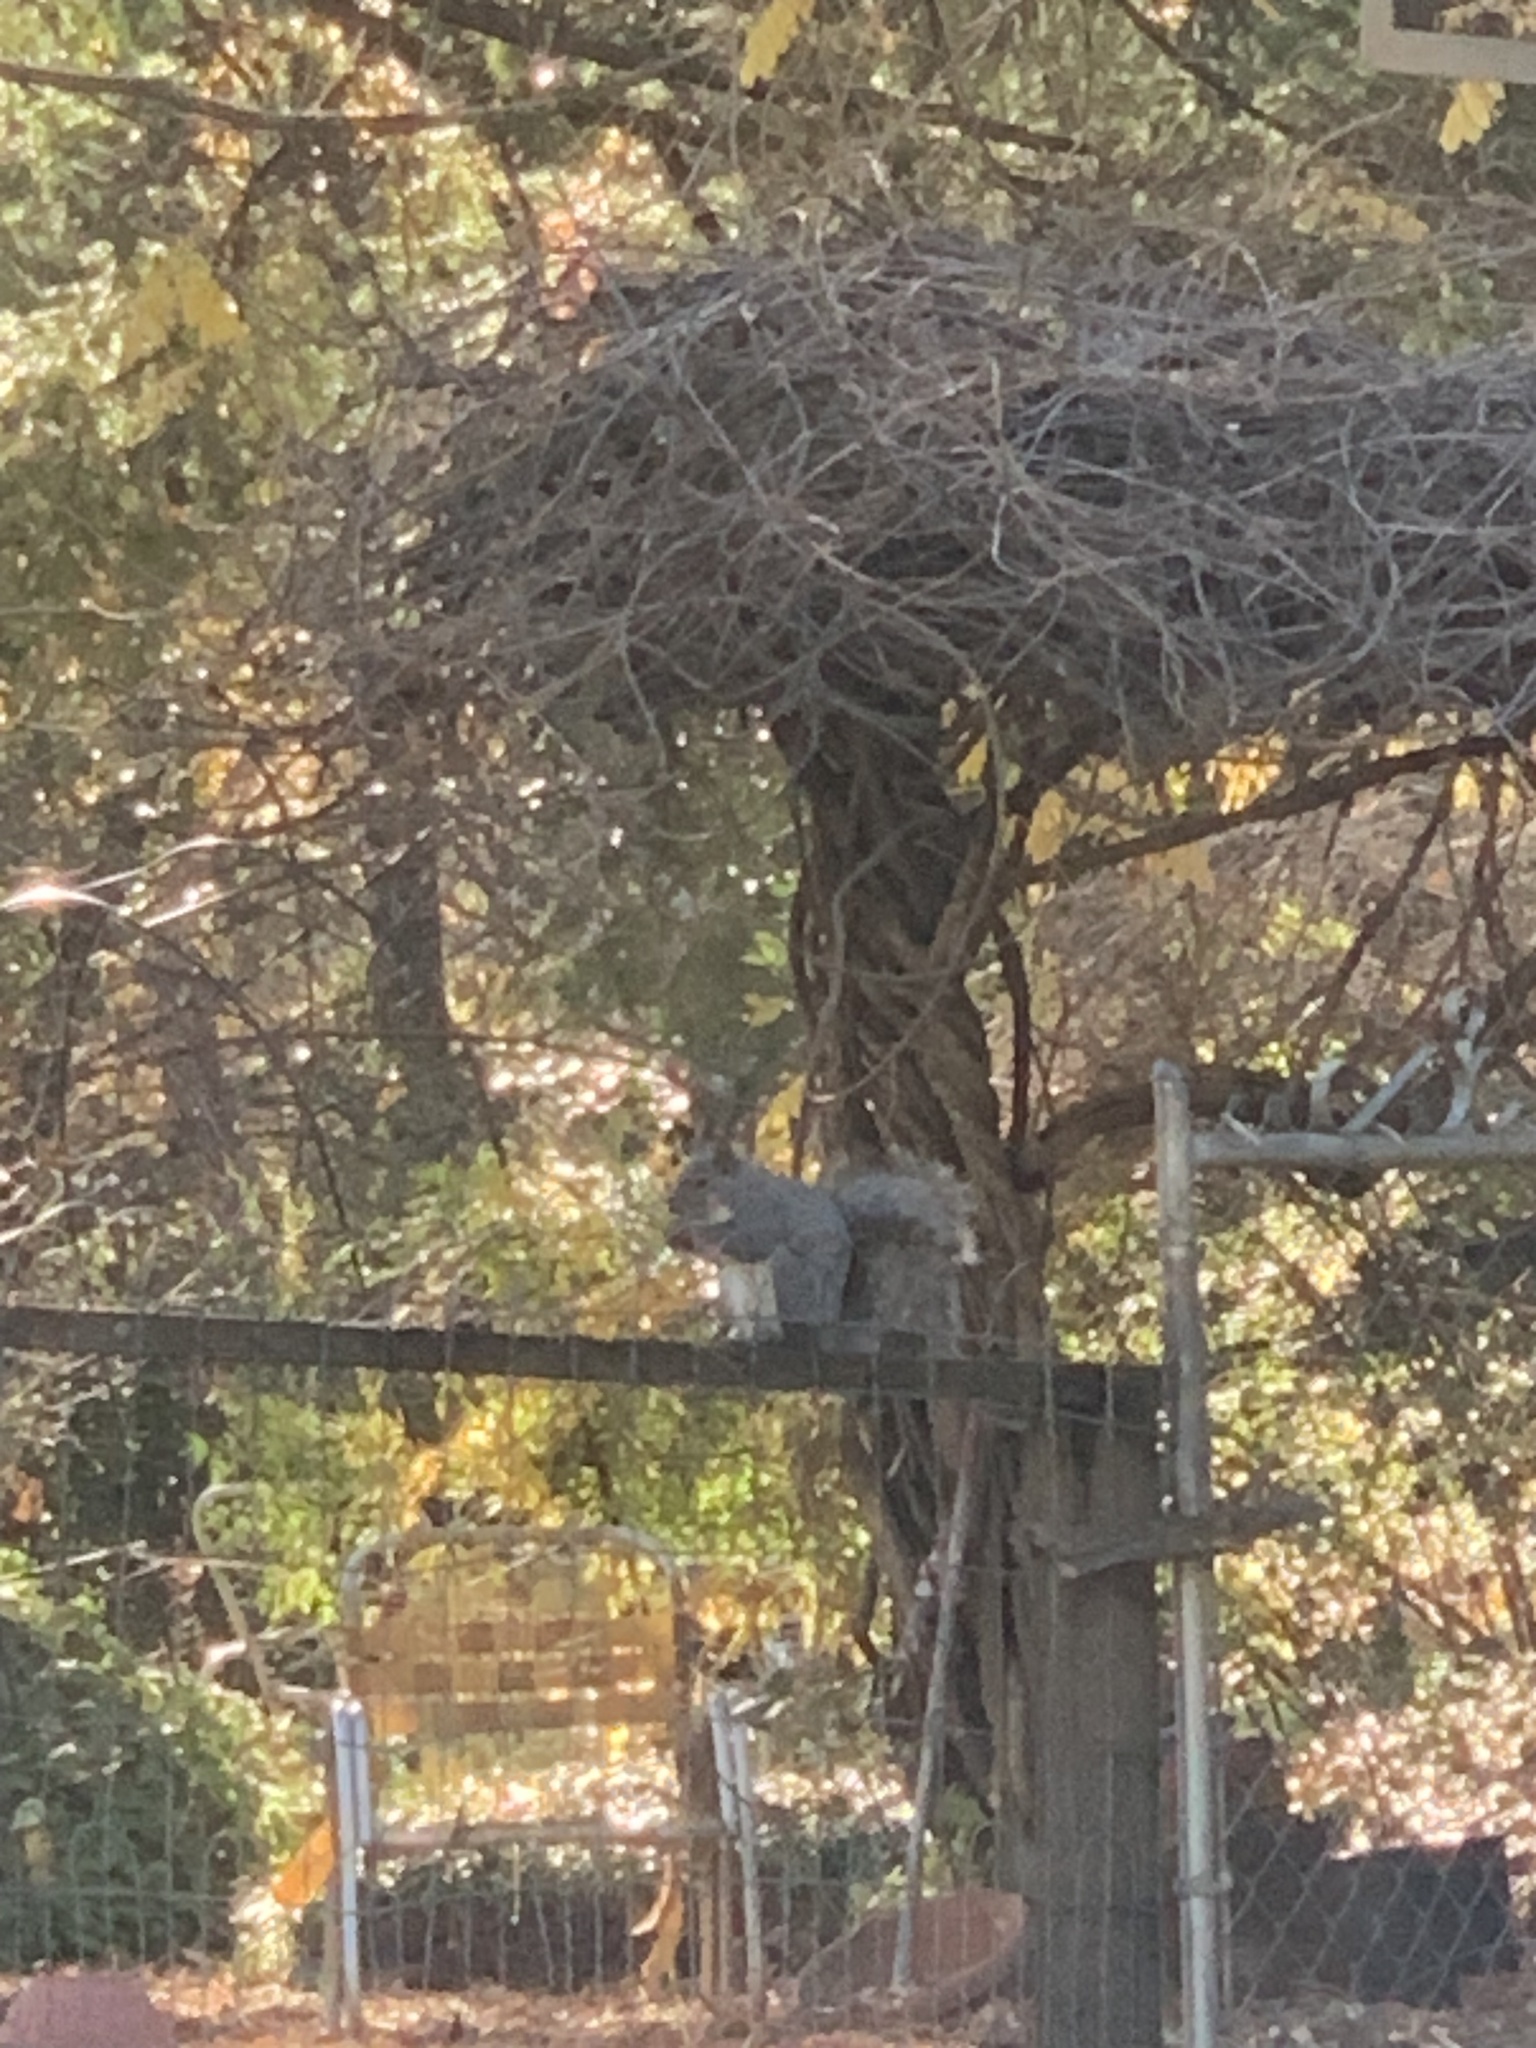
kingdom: Animalia
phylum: Chordata
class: Mammalia
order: Rodentia
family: Sciuridae
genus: Sciurus
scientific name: Sciurus griseus
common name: Western gray squirrel
